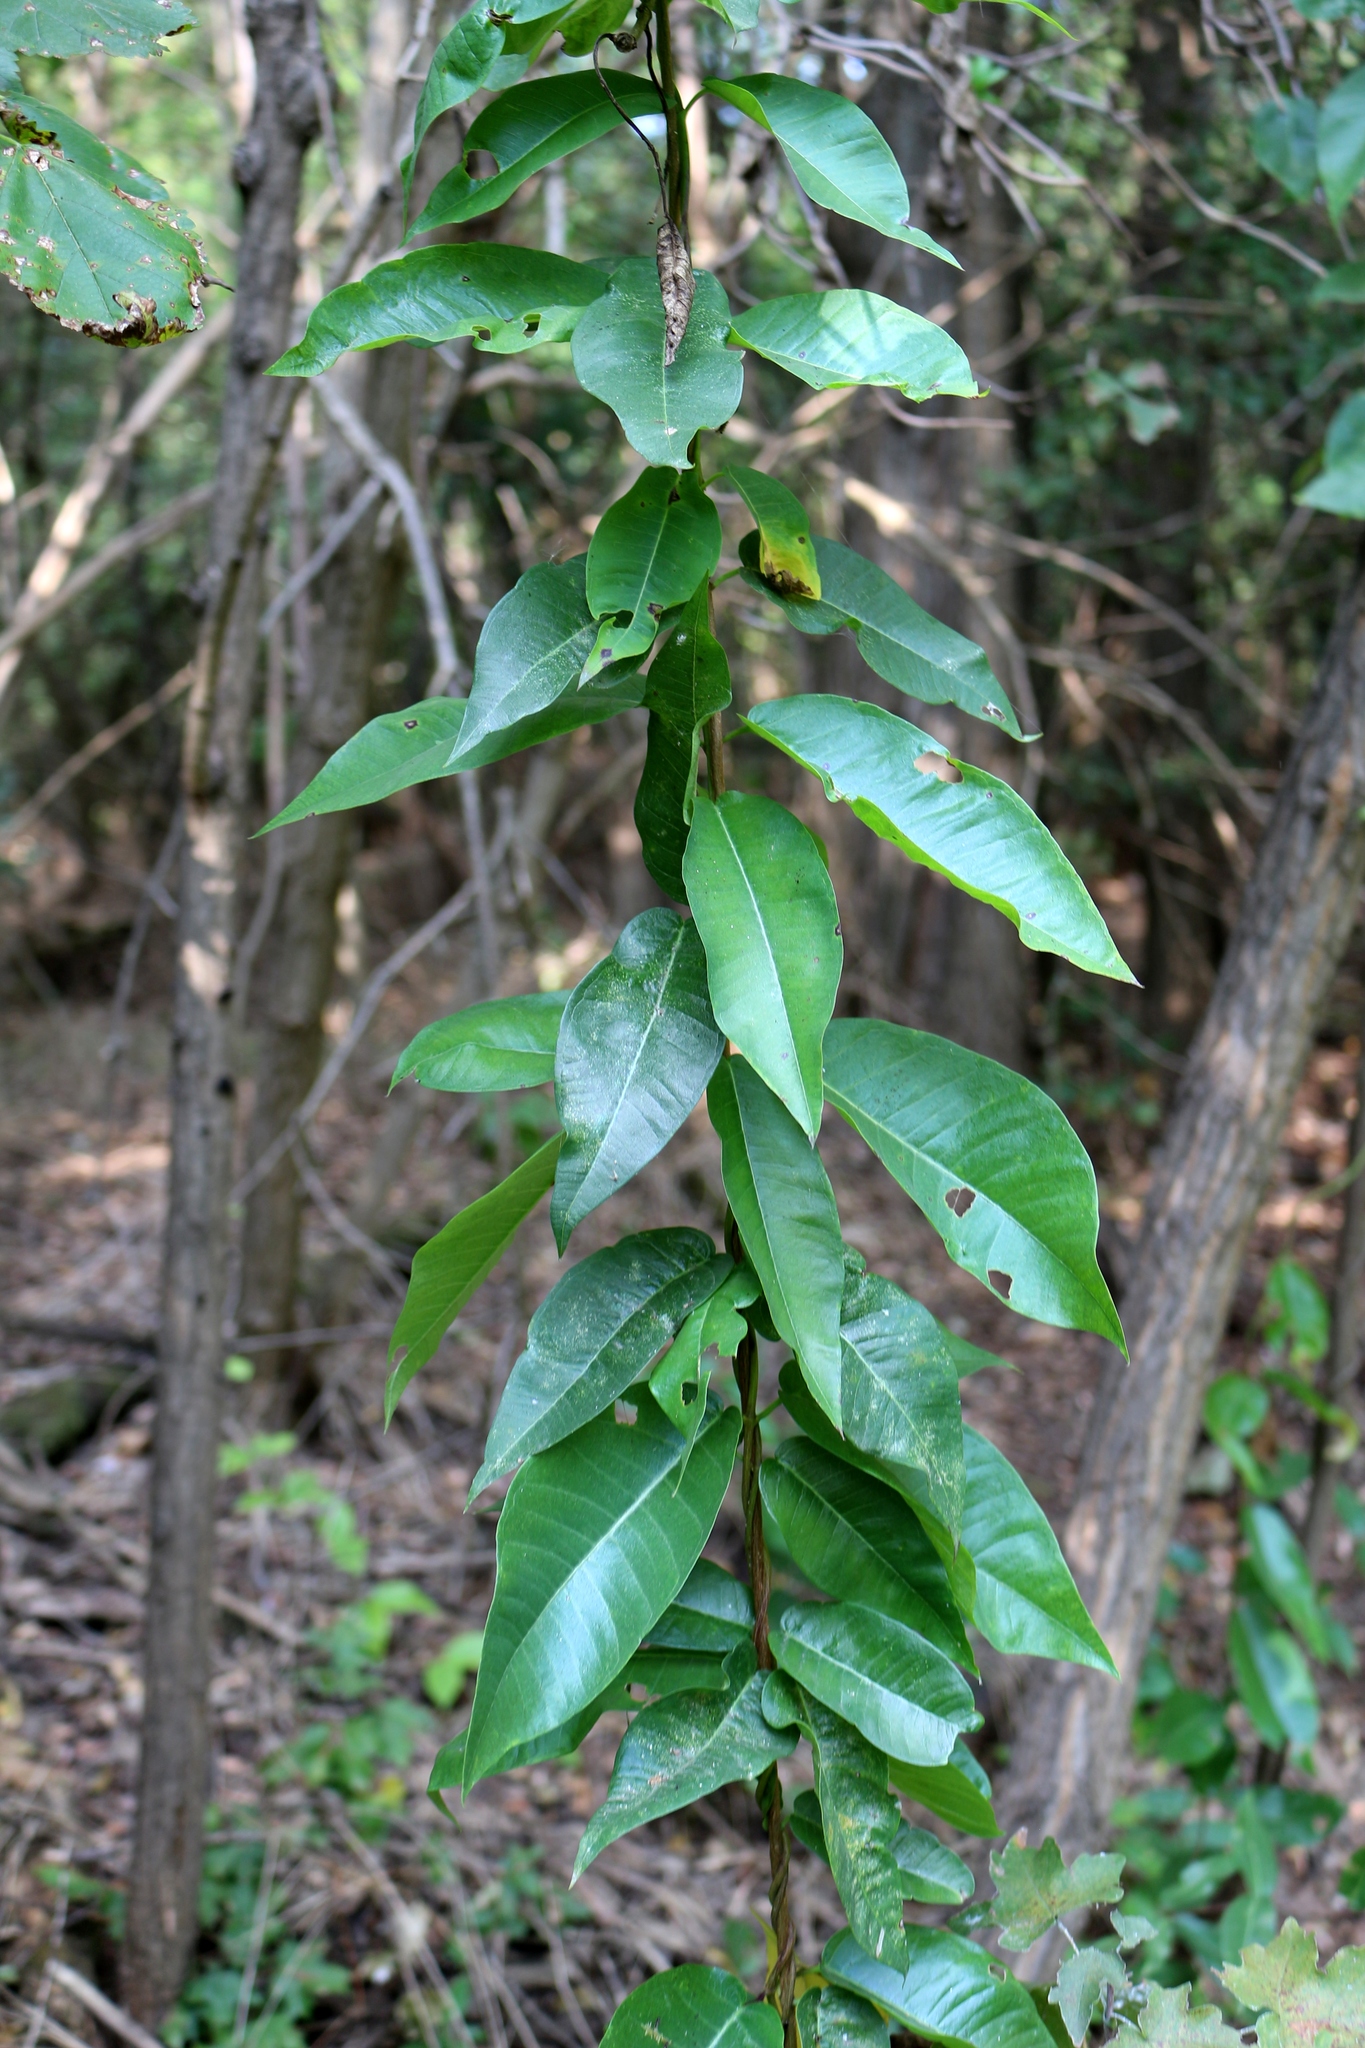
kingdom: Plantae
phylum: Tracheophyta
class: Magnoliopsida
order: Gentianales
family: Apocynaceae
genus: Periploca
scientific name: Periploca graeca
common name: Silkvine
